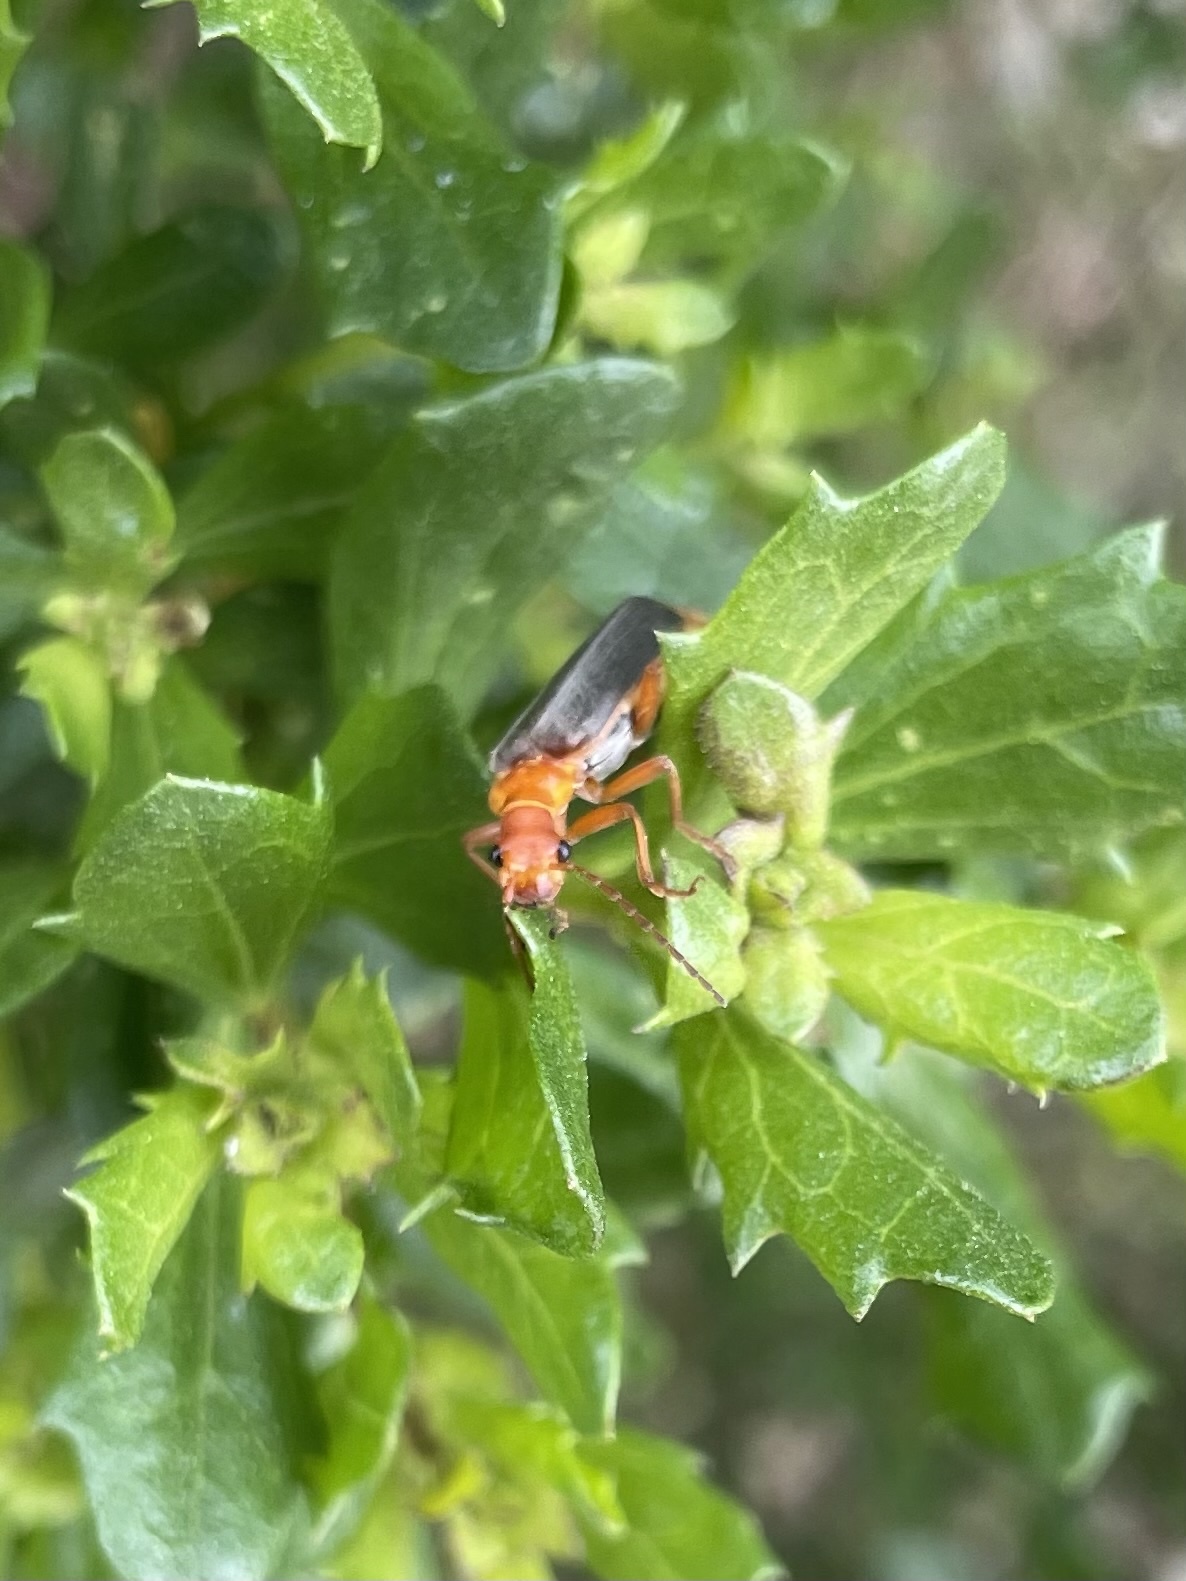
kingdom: Animalia
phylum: Arthropoda
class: Insecta
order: Coleoptera
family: Cantharidae
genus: Podabrus
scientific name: Podabrus pruinosus
